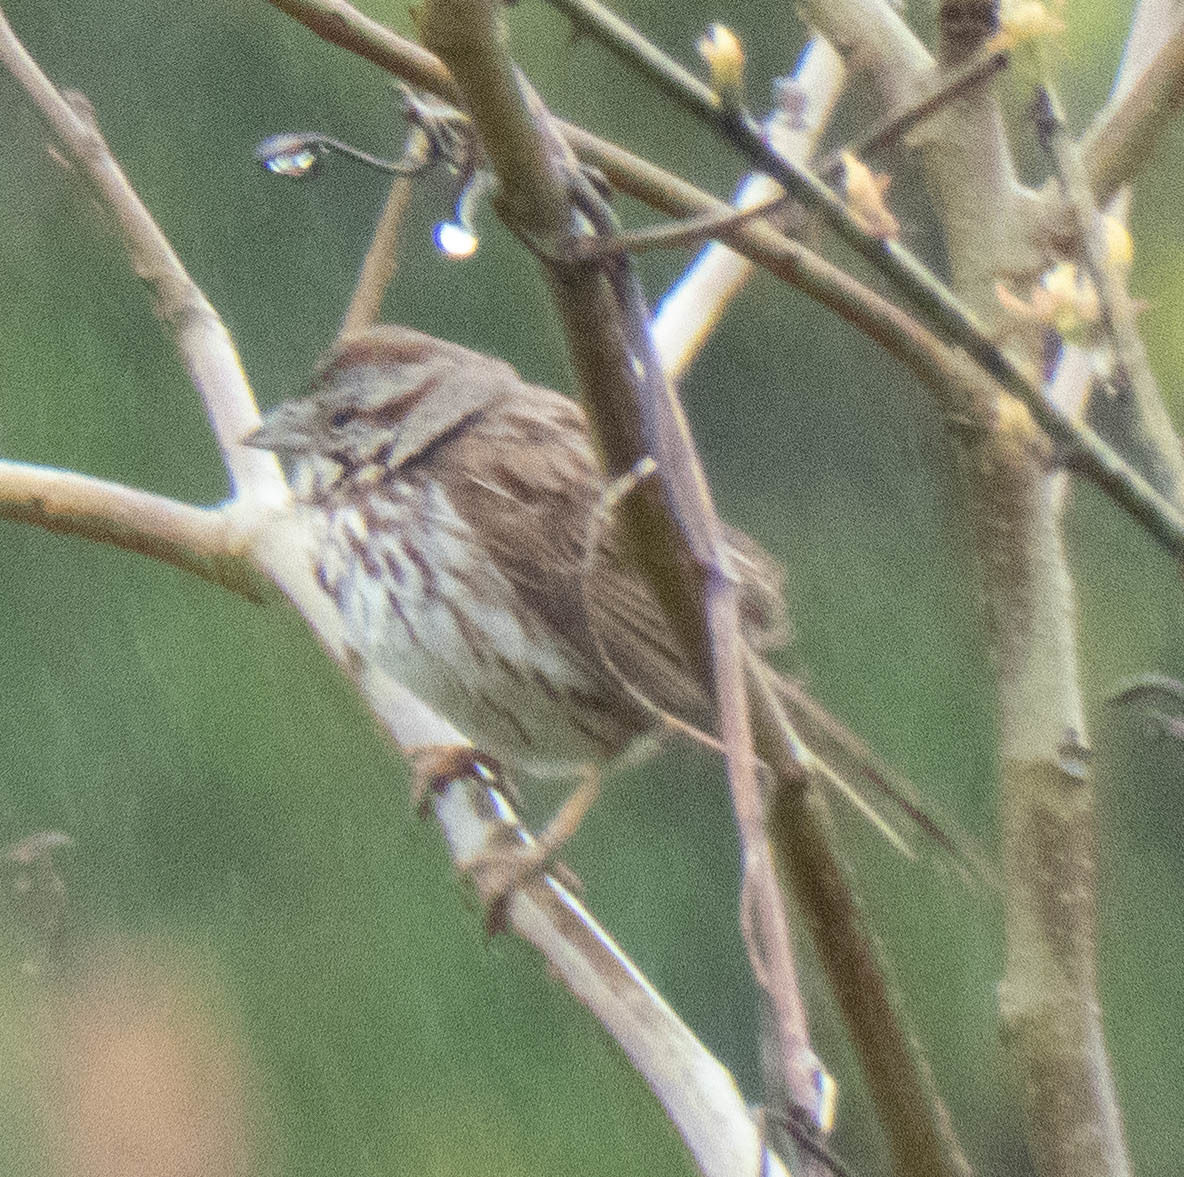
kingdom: Animalia
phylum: Chordata
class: Aves
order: Passeriformes
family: Passerellidae
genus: Melospiza
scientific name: Melospiza melodia
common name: Song sparrow
